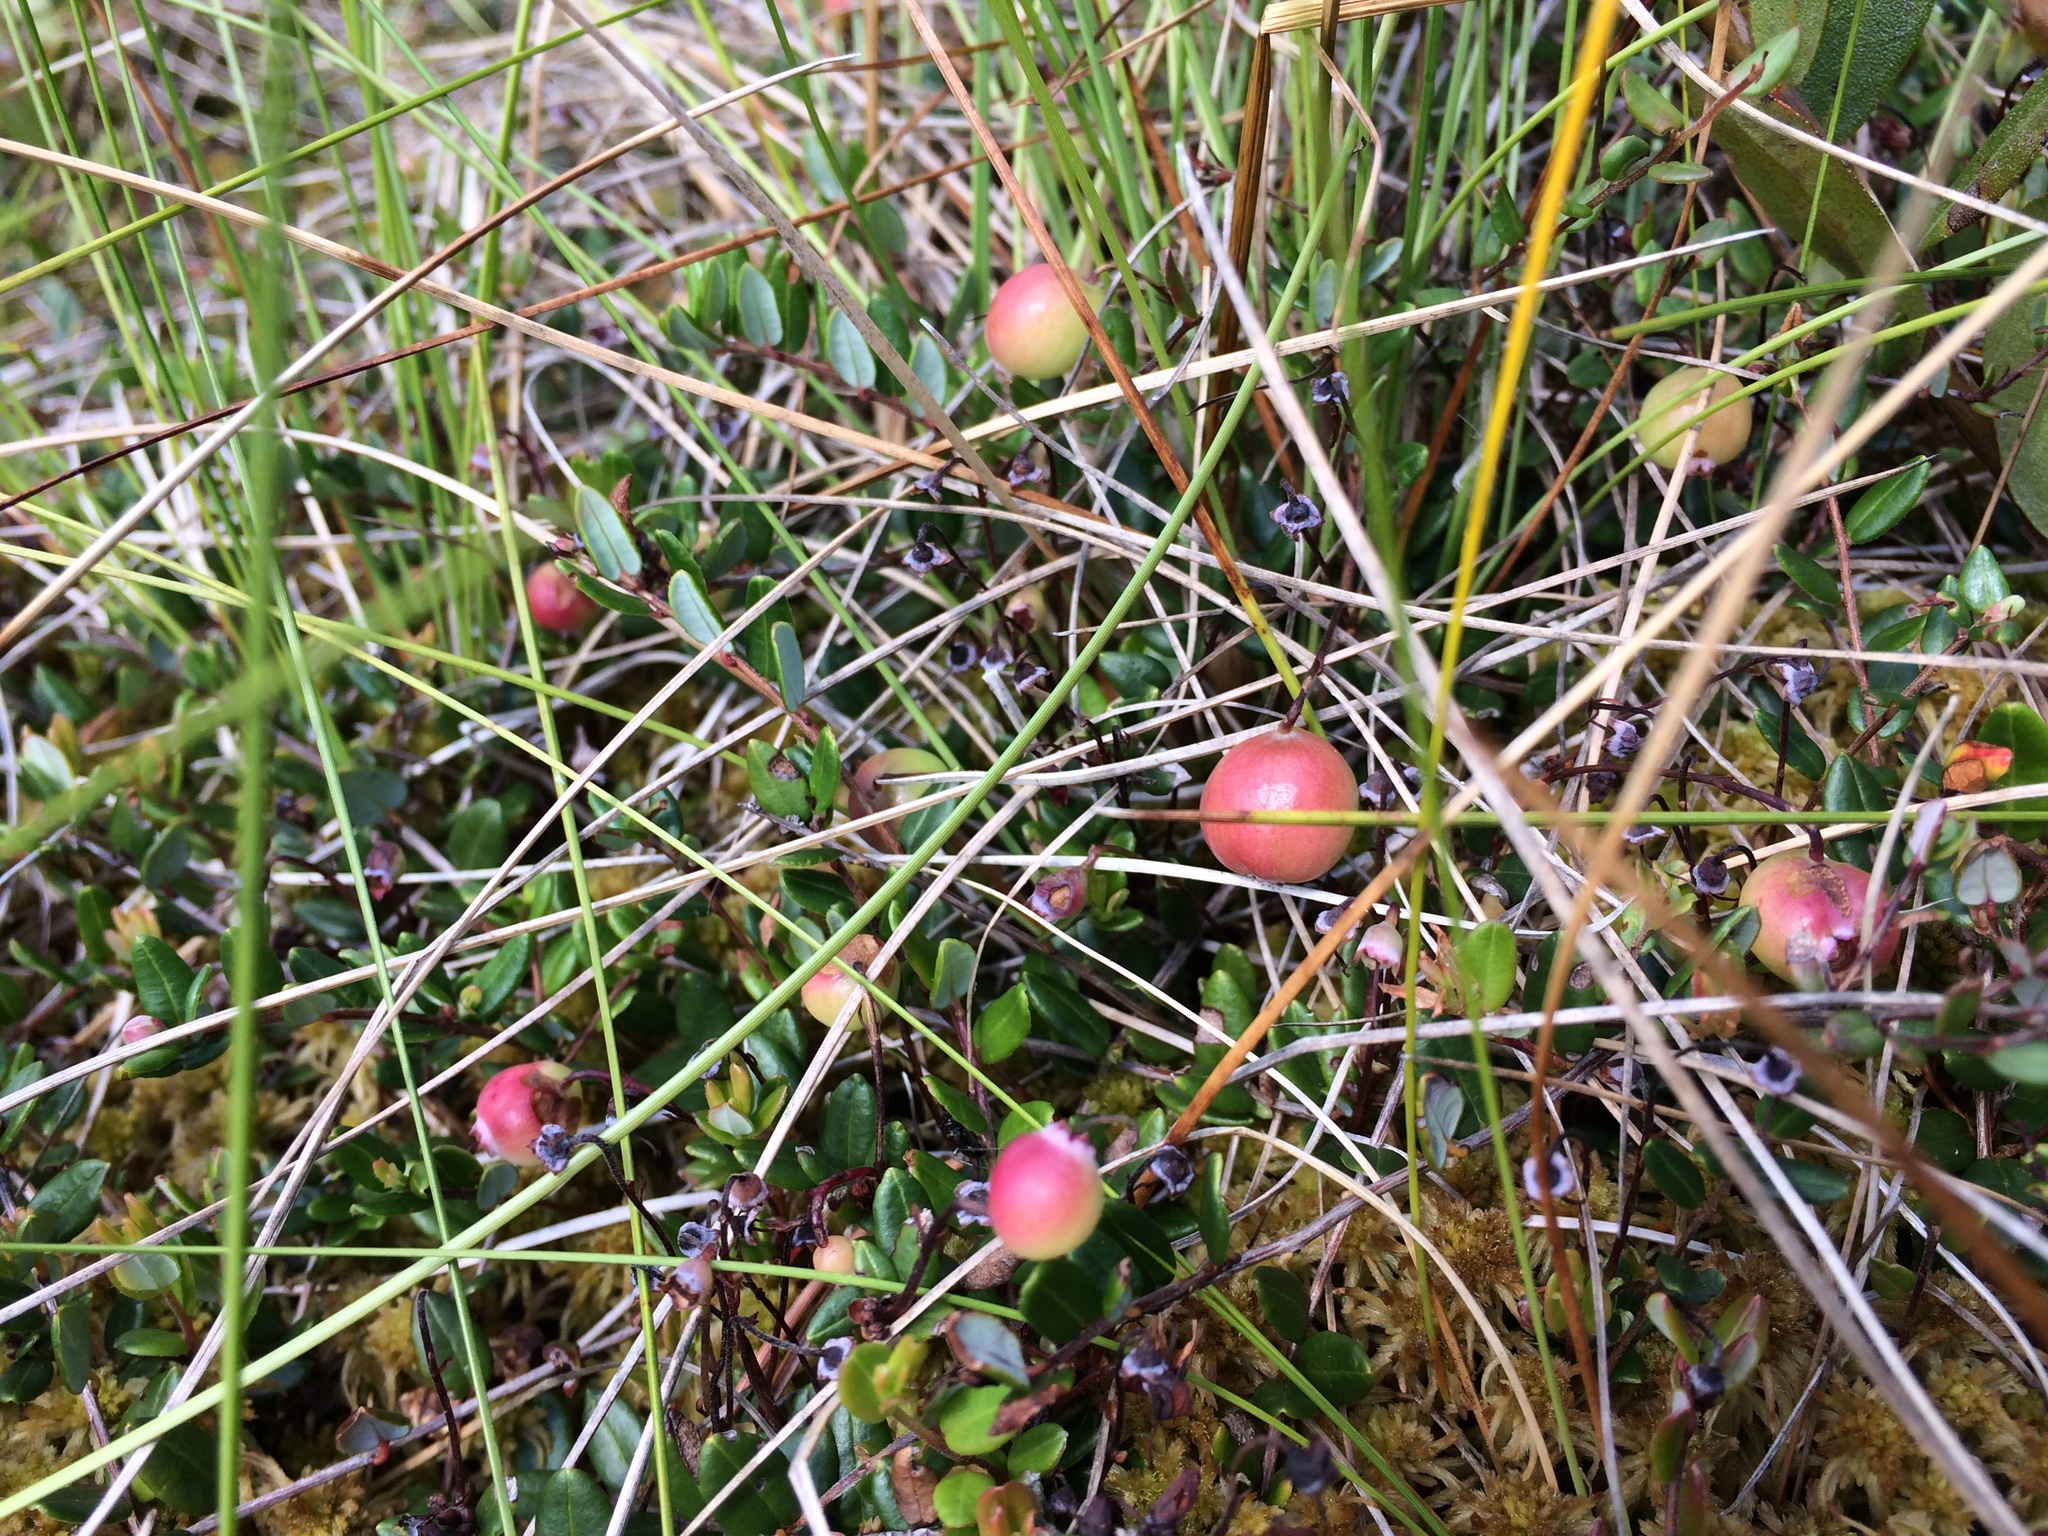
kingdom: Plantae
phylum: Tracheophyta
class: Magnoliopsida
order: Ericales
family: Ericaceae
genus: Vaccinium
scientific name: Vaccinium oxycoccos
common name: Cranberry
